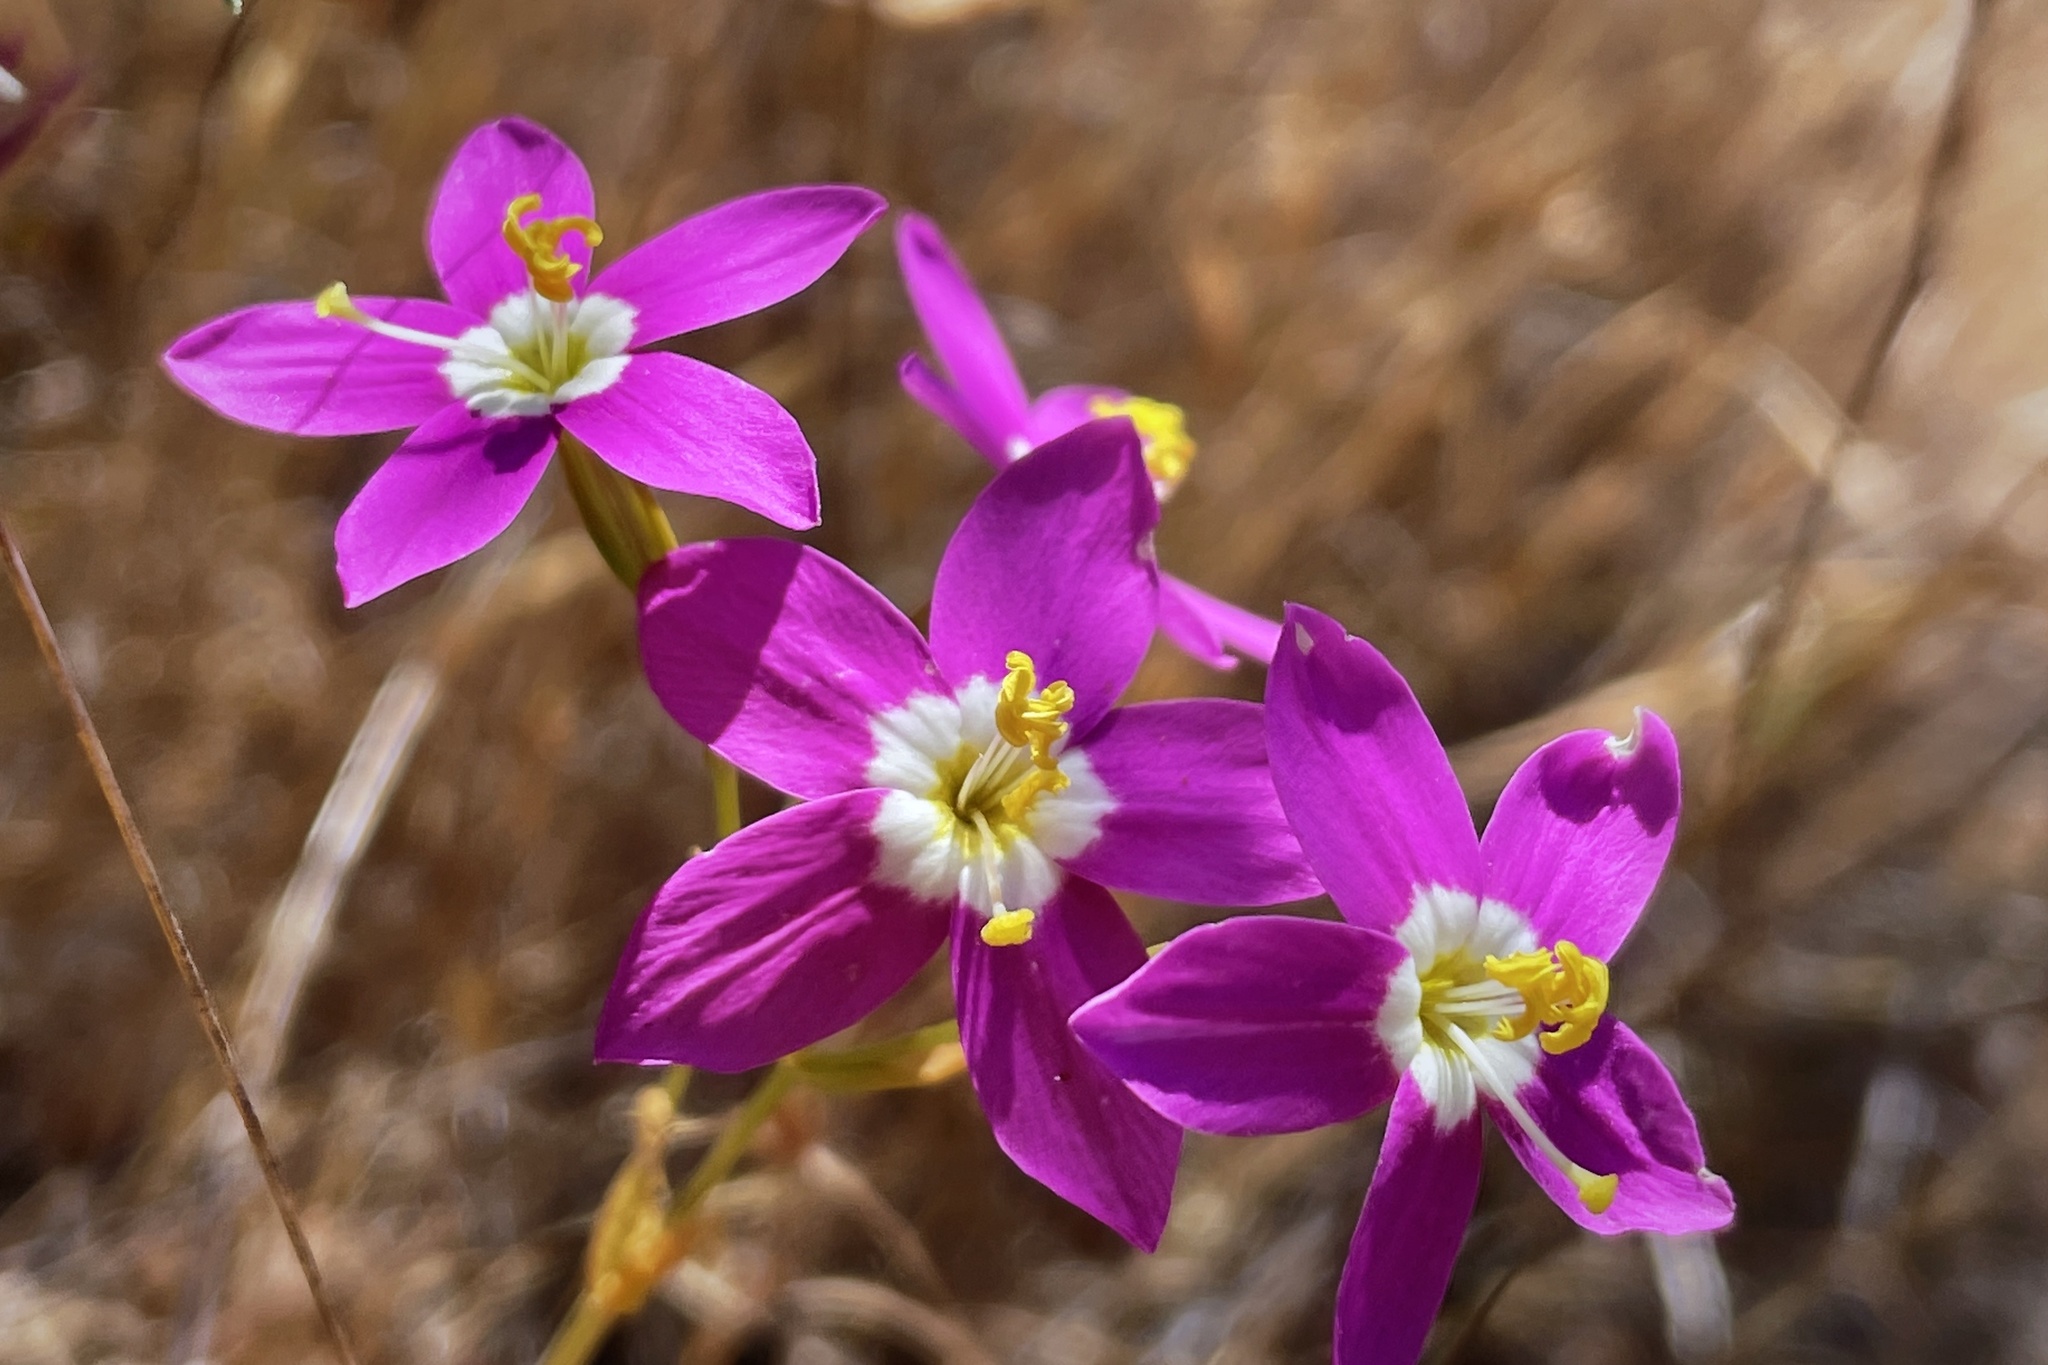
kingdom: Plantae
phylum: Tracheophyta
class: Magnoliopsida
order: Gentianales
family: Gentianaceae
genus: Zeltnera
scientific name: Zeltnera venusta
